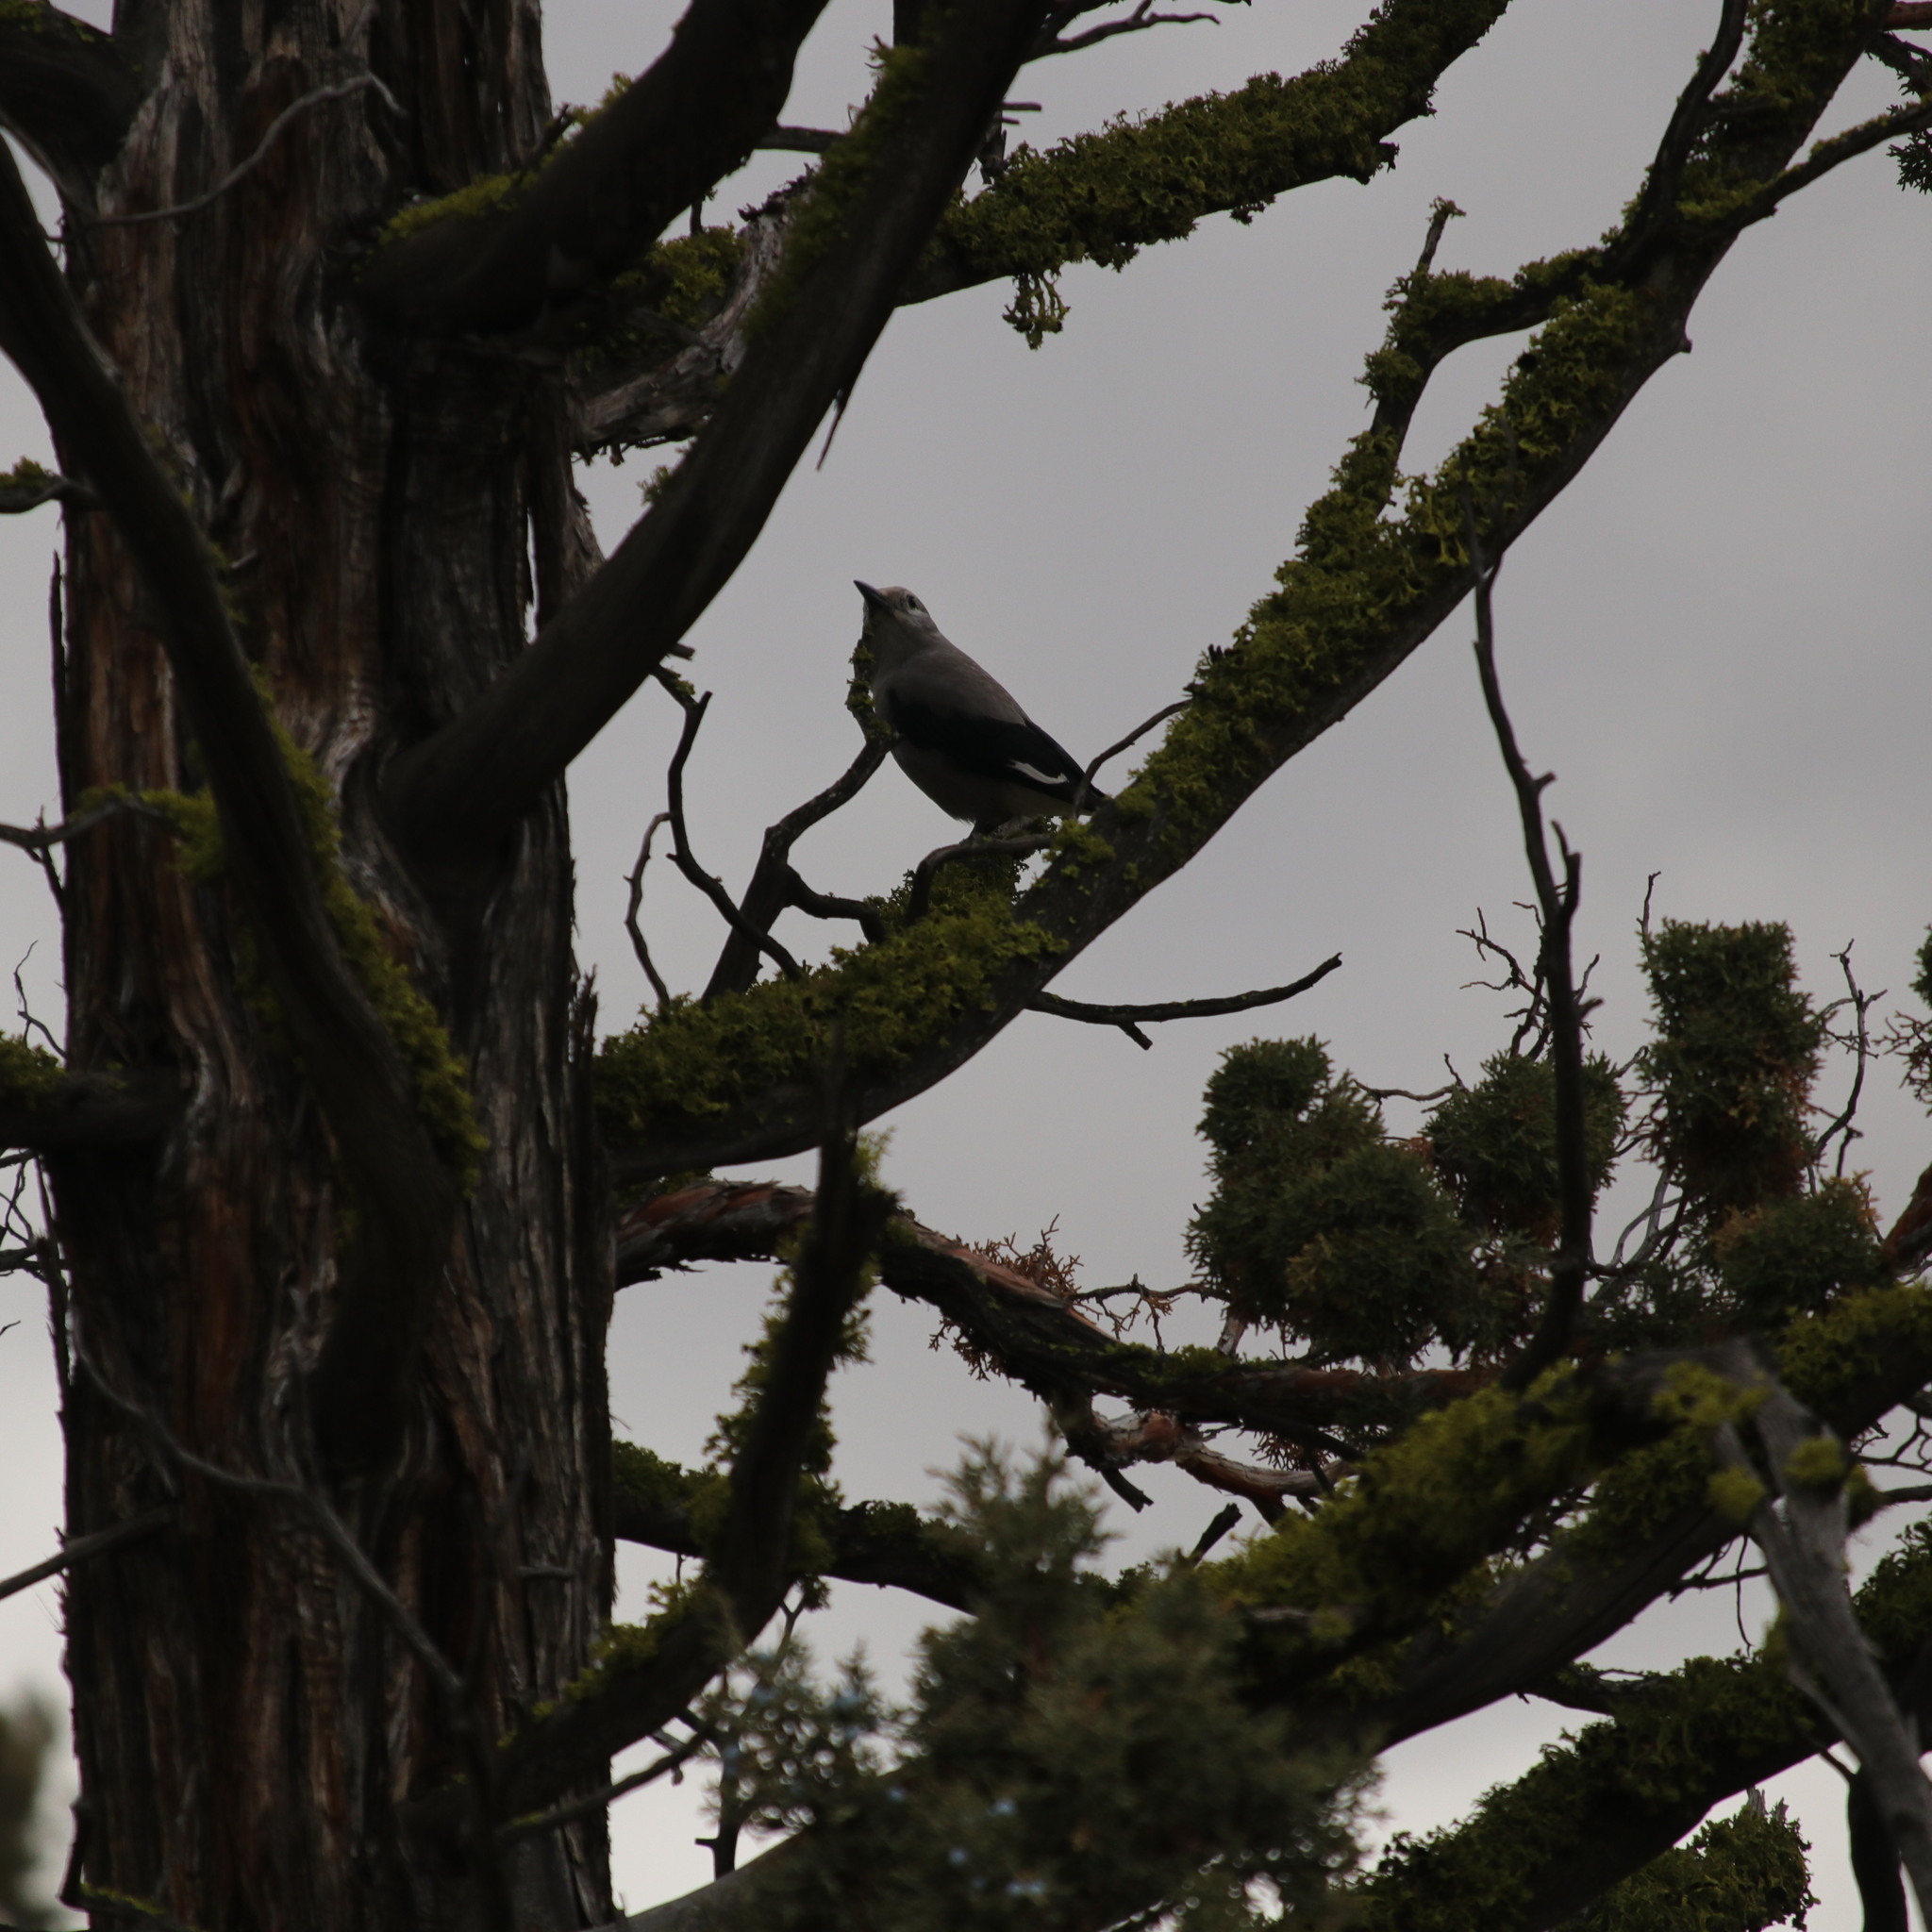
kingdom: Animalia
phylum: Chordata
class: Aves
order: Passeriformes
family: Corvidae
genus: Nucifraga
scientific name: Nucifraga columbiana
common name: Clark's nutcracker
